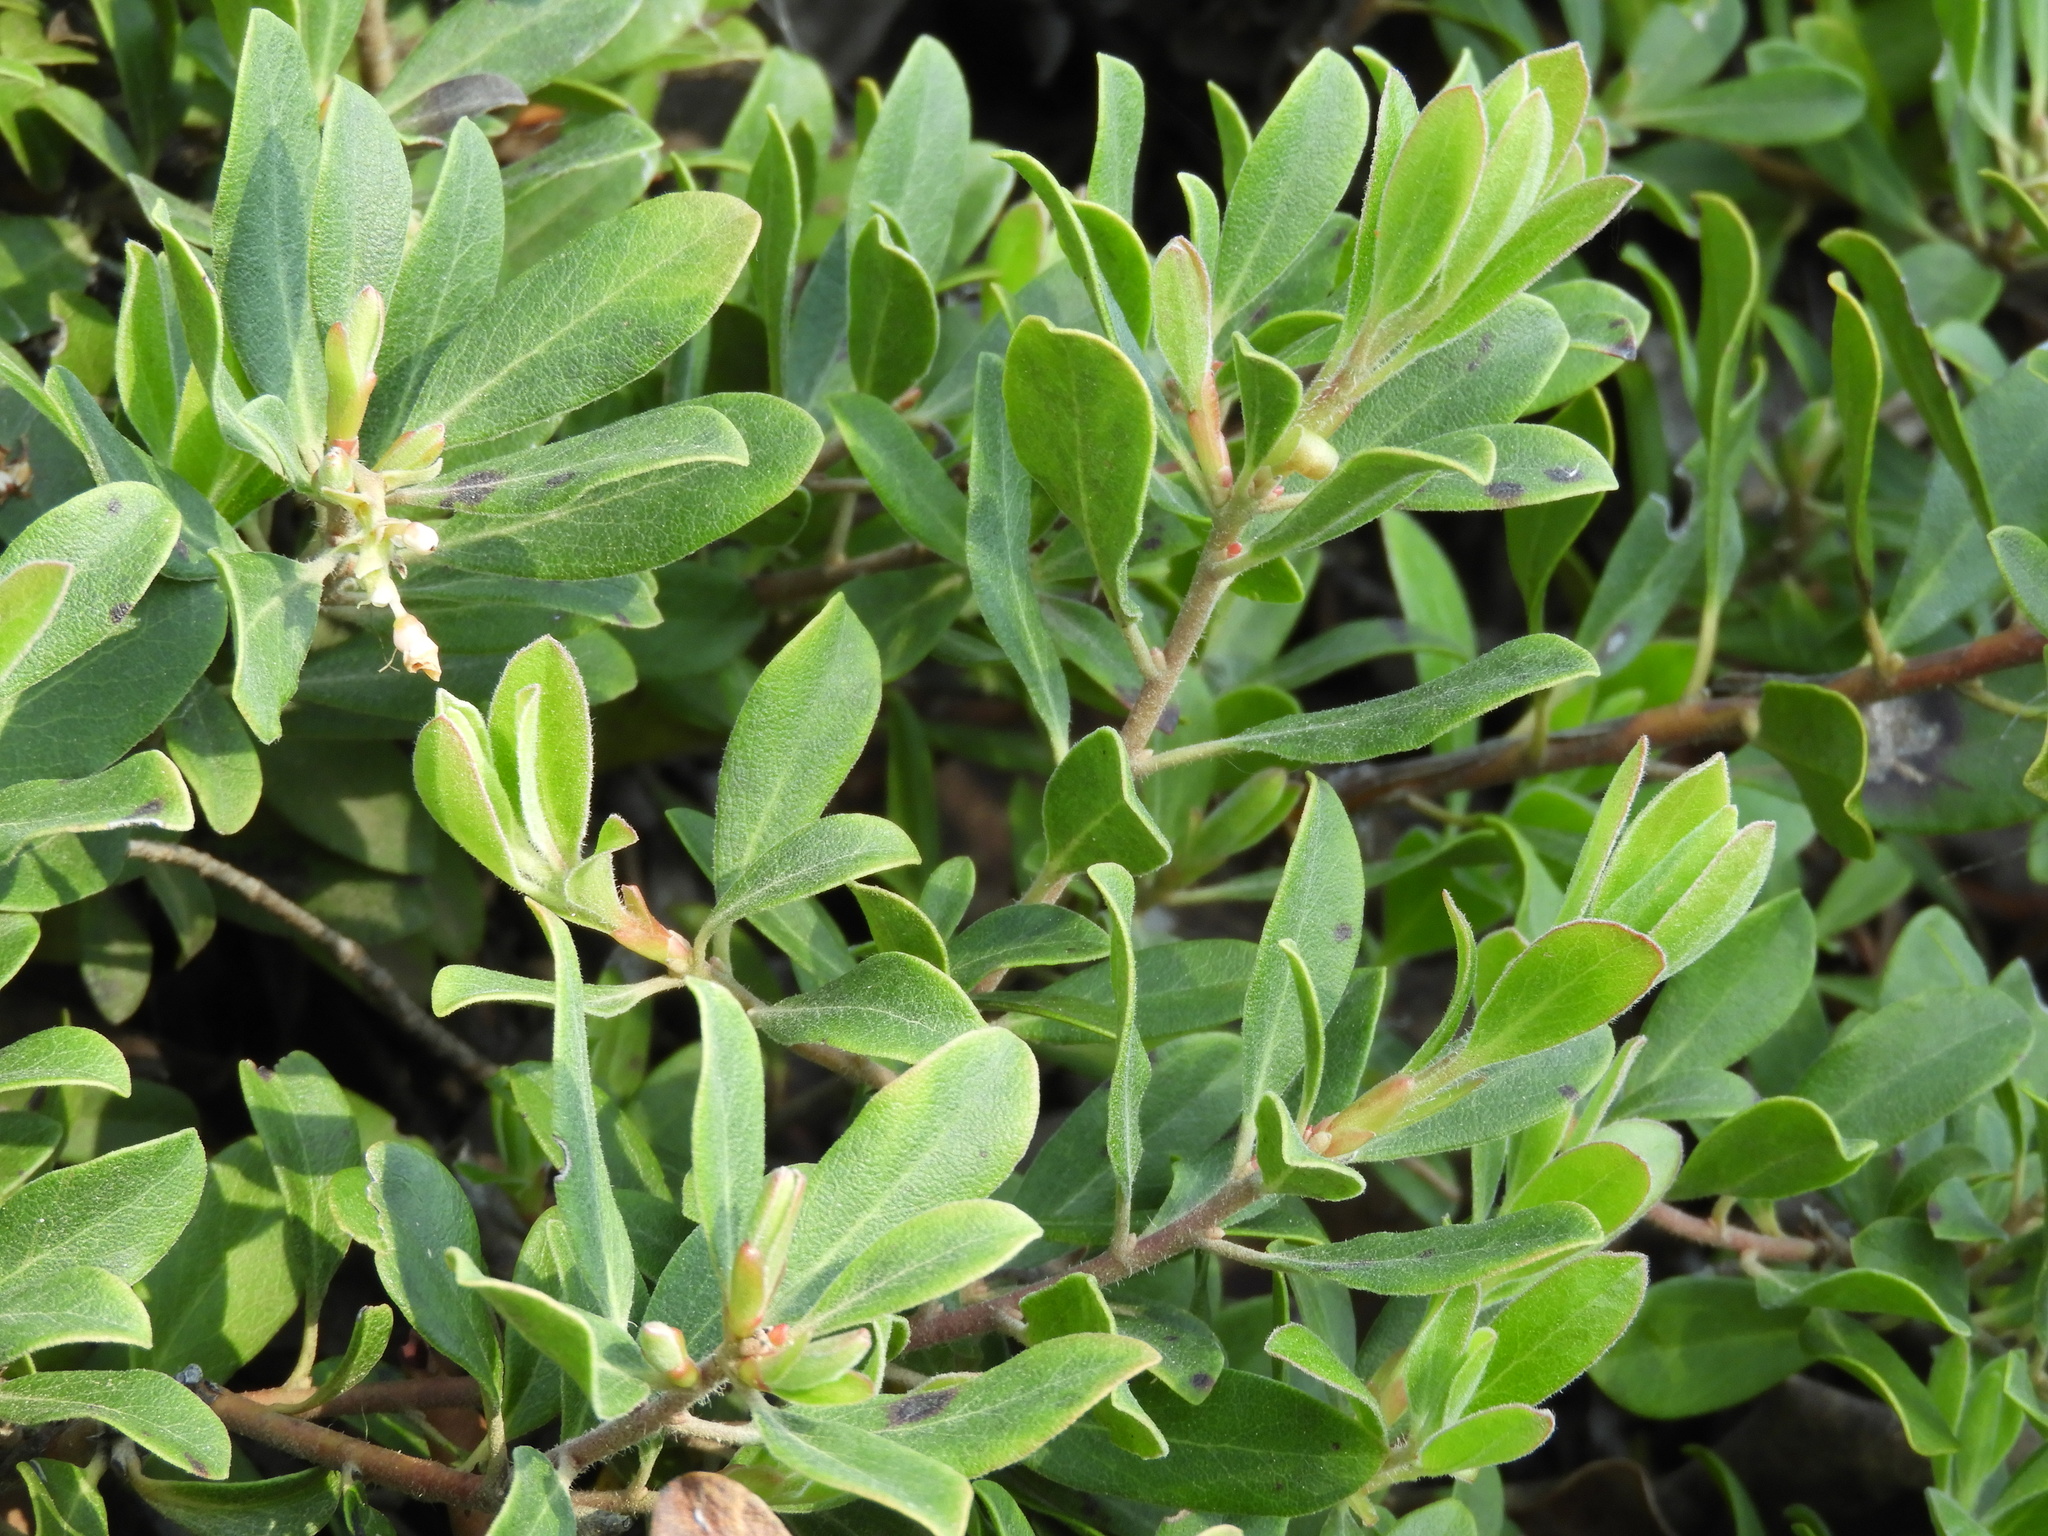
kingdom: Plantae
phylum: Tracheophyta
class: Magnoliopsida
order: Ericales
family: Ericaceae
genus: Arctostaphylos
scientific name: Arctostaphylos uva-ursi
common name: Bearberry
